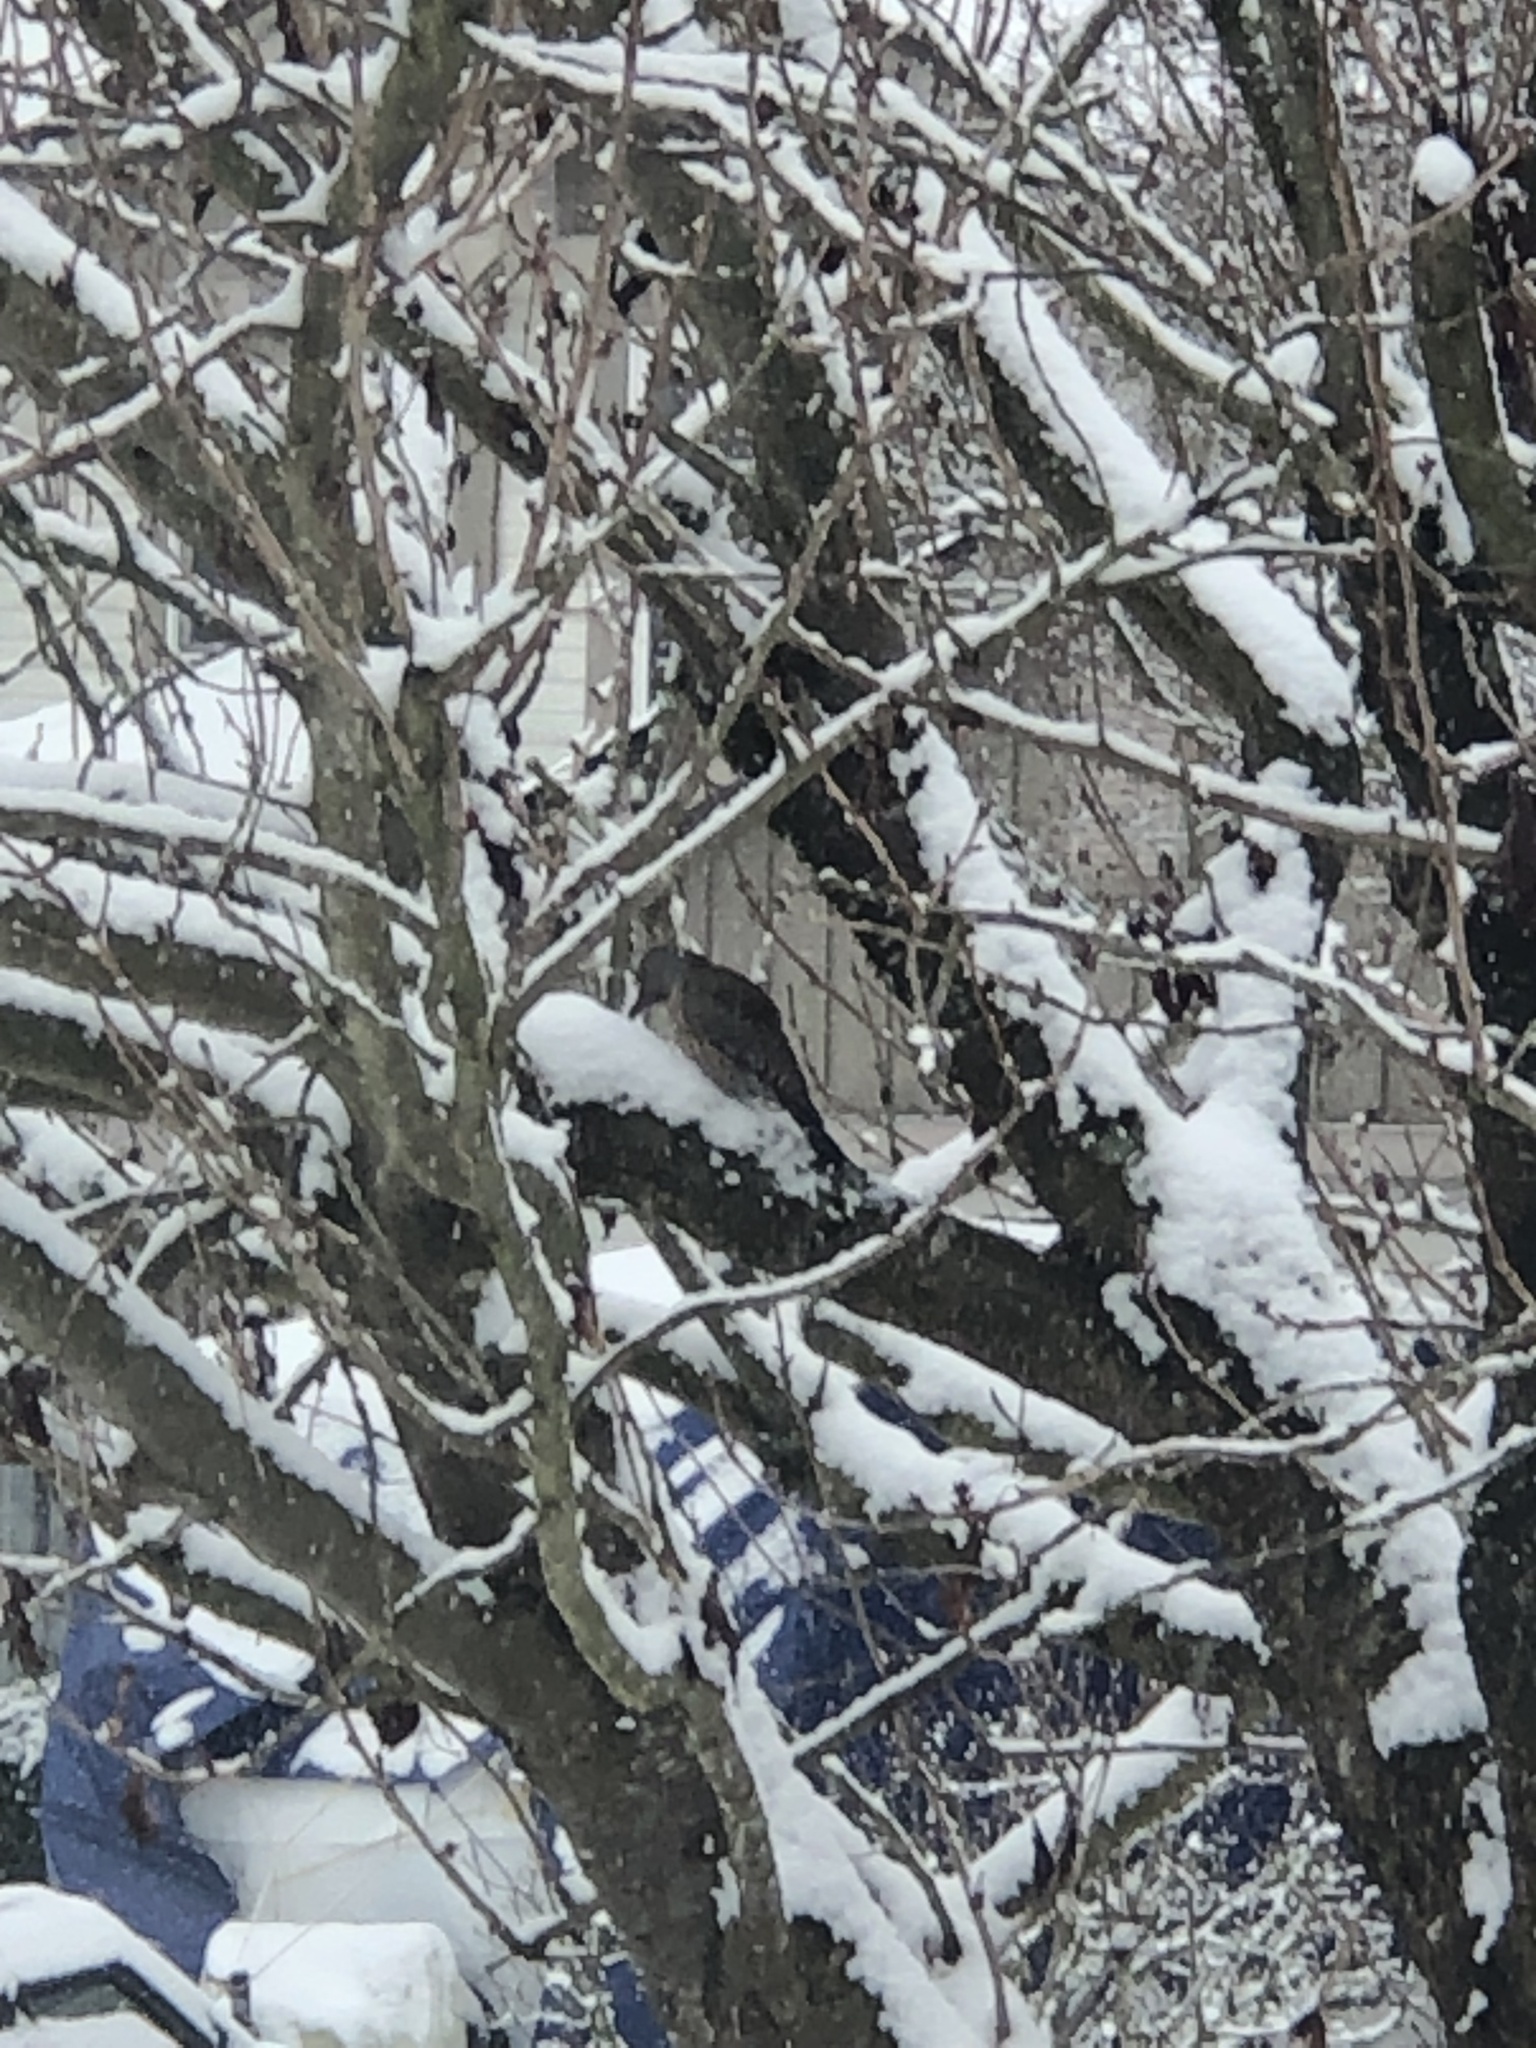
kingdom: Animalia
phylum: Chordata
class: Aves
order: Piciformes
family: Picidae
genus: Colaptes
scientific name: Colaptes auratus
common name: Northern flicker
